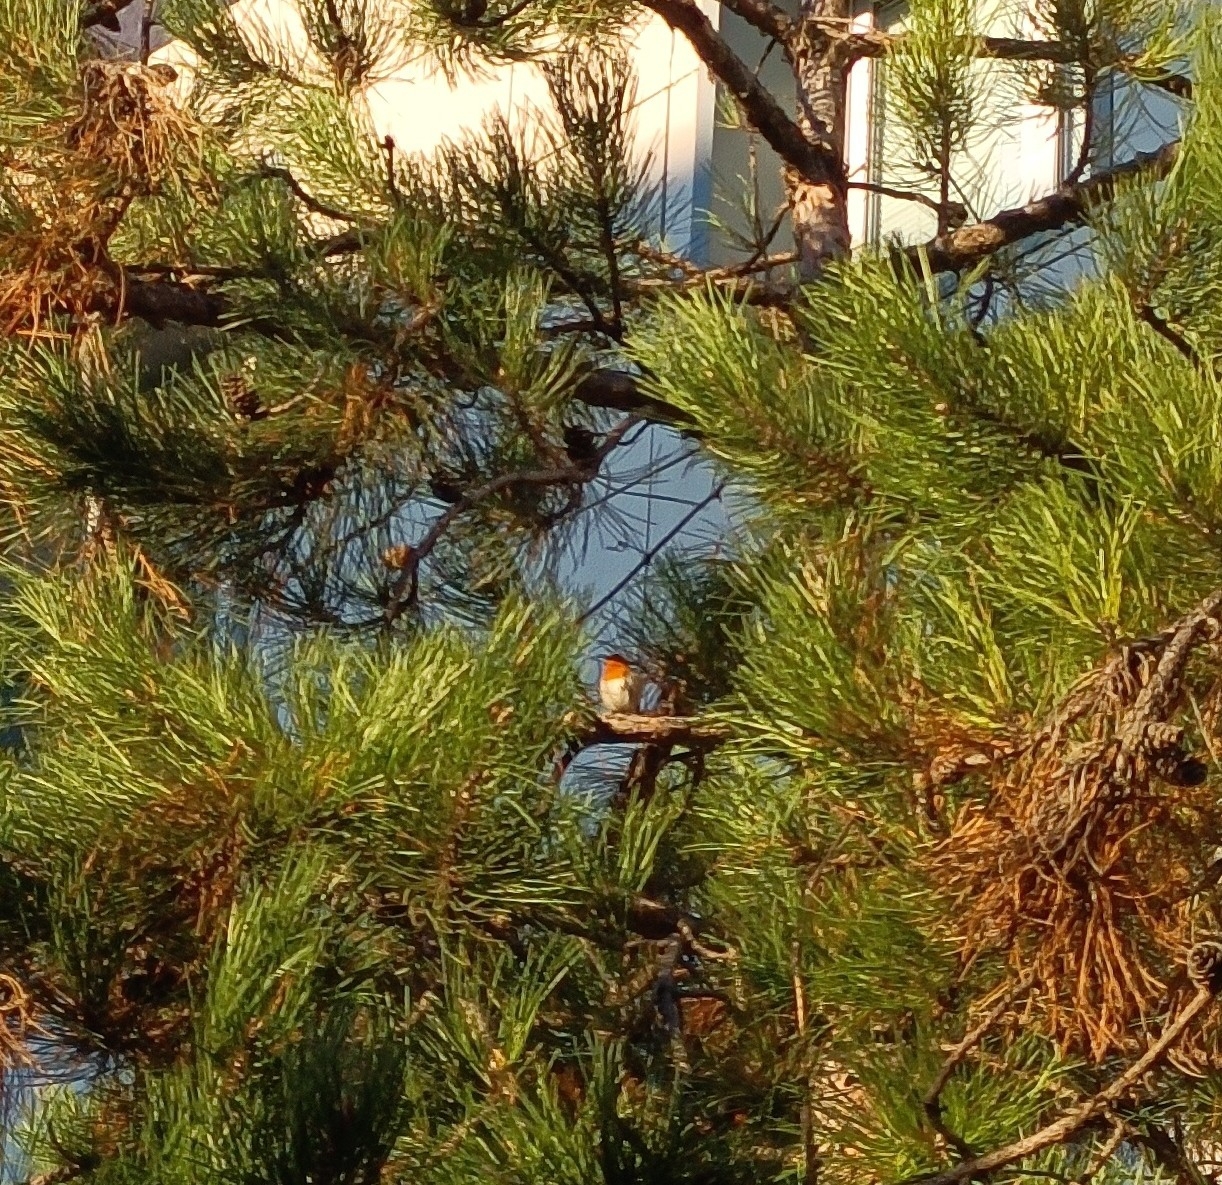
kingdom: Animalia
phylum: Chordata
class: Aves
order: Passeriformes
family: Muscicapidae
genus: Erithacus
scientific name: Erithacus rubecula
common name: European robin
